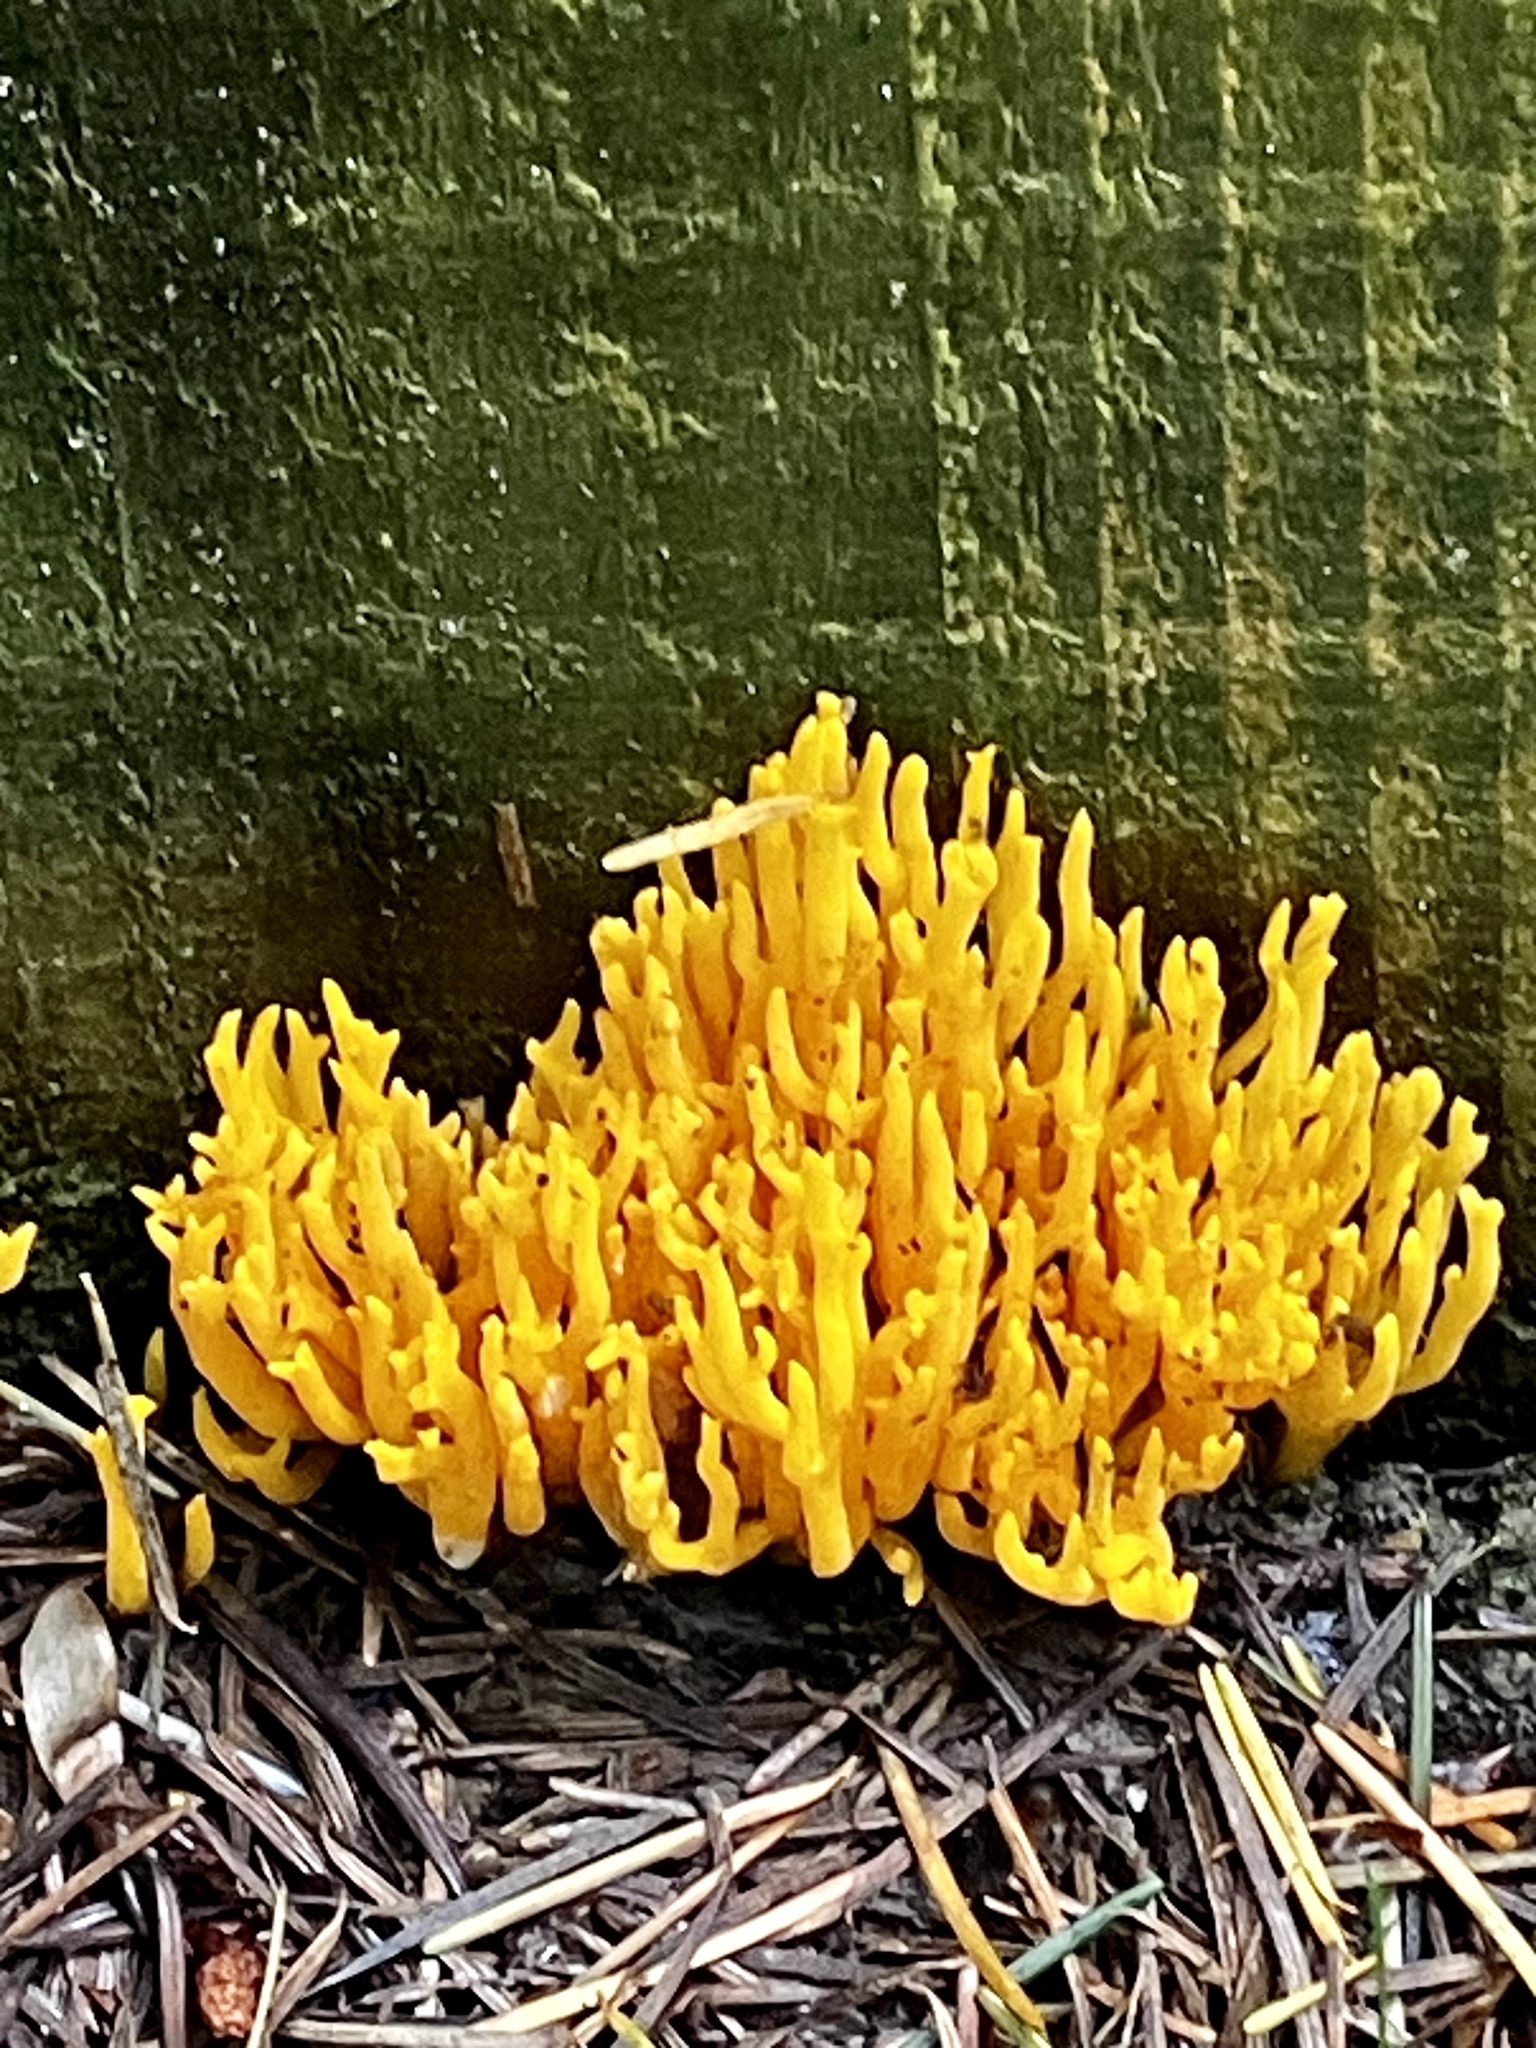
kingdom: Fungi
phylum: Basidiomycota
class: Dacrymycetes
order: Dacrymycetales
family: Dacrymycetaceae
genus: Calocera
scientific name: Calocera viscosa
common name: Yellow stagshorn
